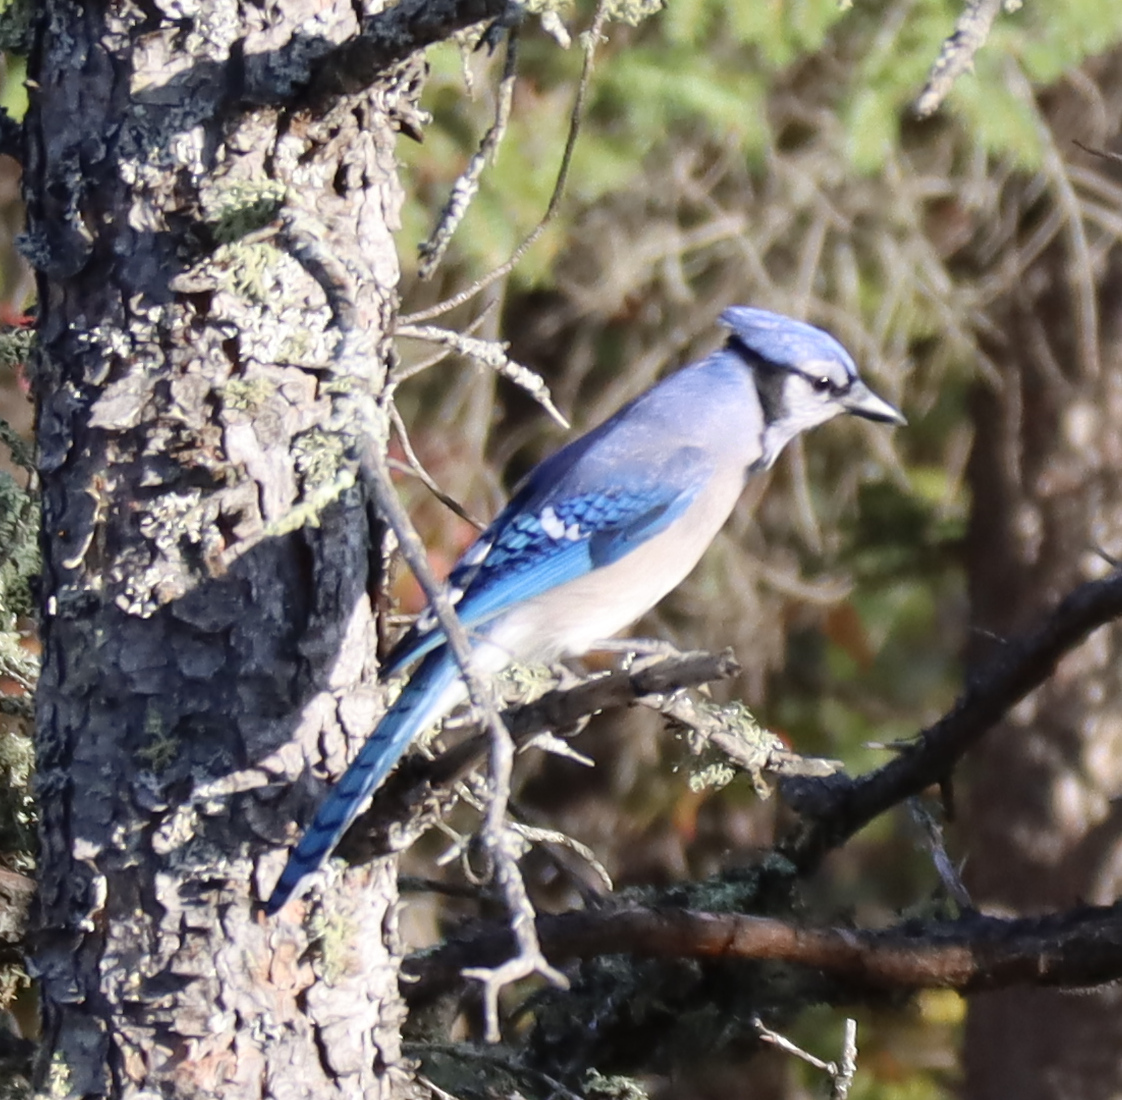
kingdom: Animalia
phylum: Chordata
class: Aves
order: Passeriformes
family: Corvidae
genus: Cyanocitta
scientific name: Cyanocitta cristata
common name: Blue jay
